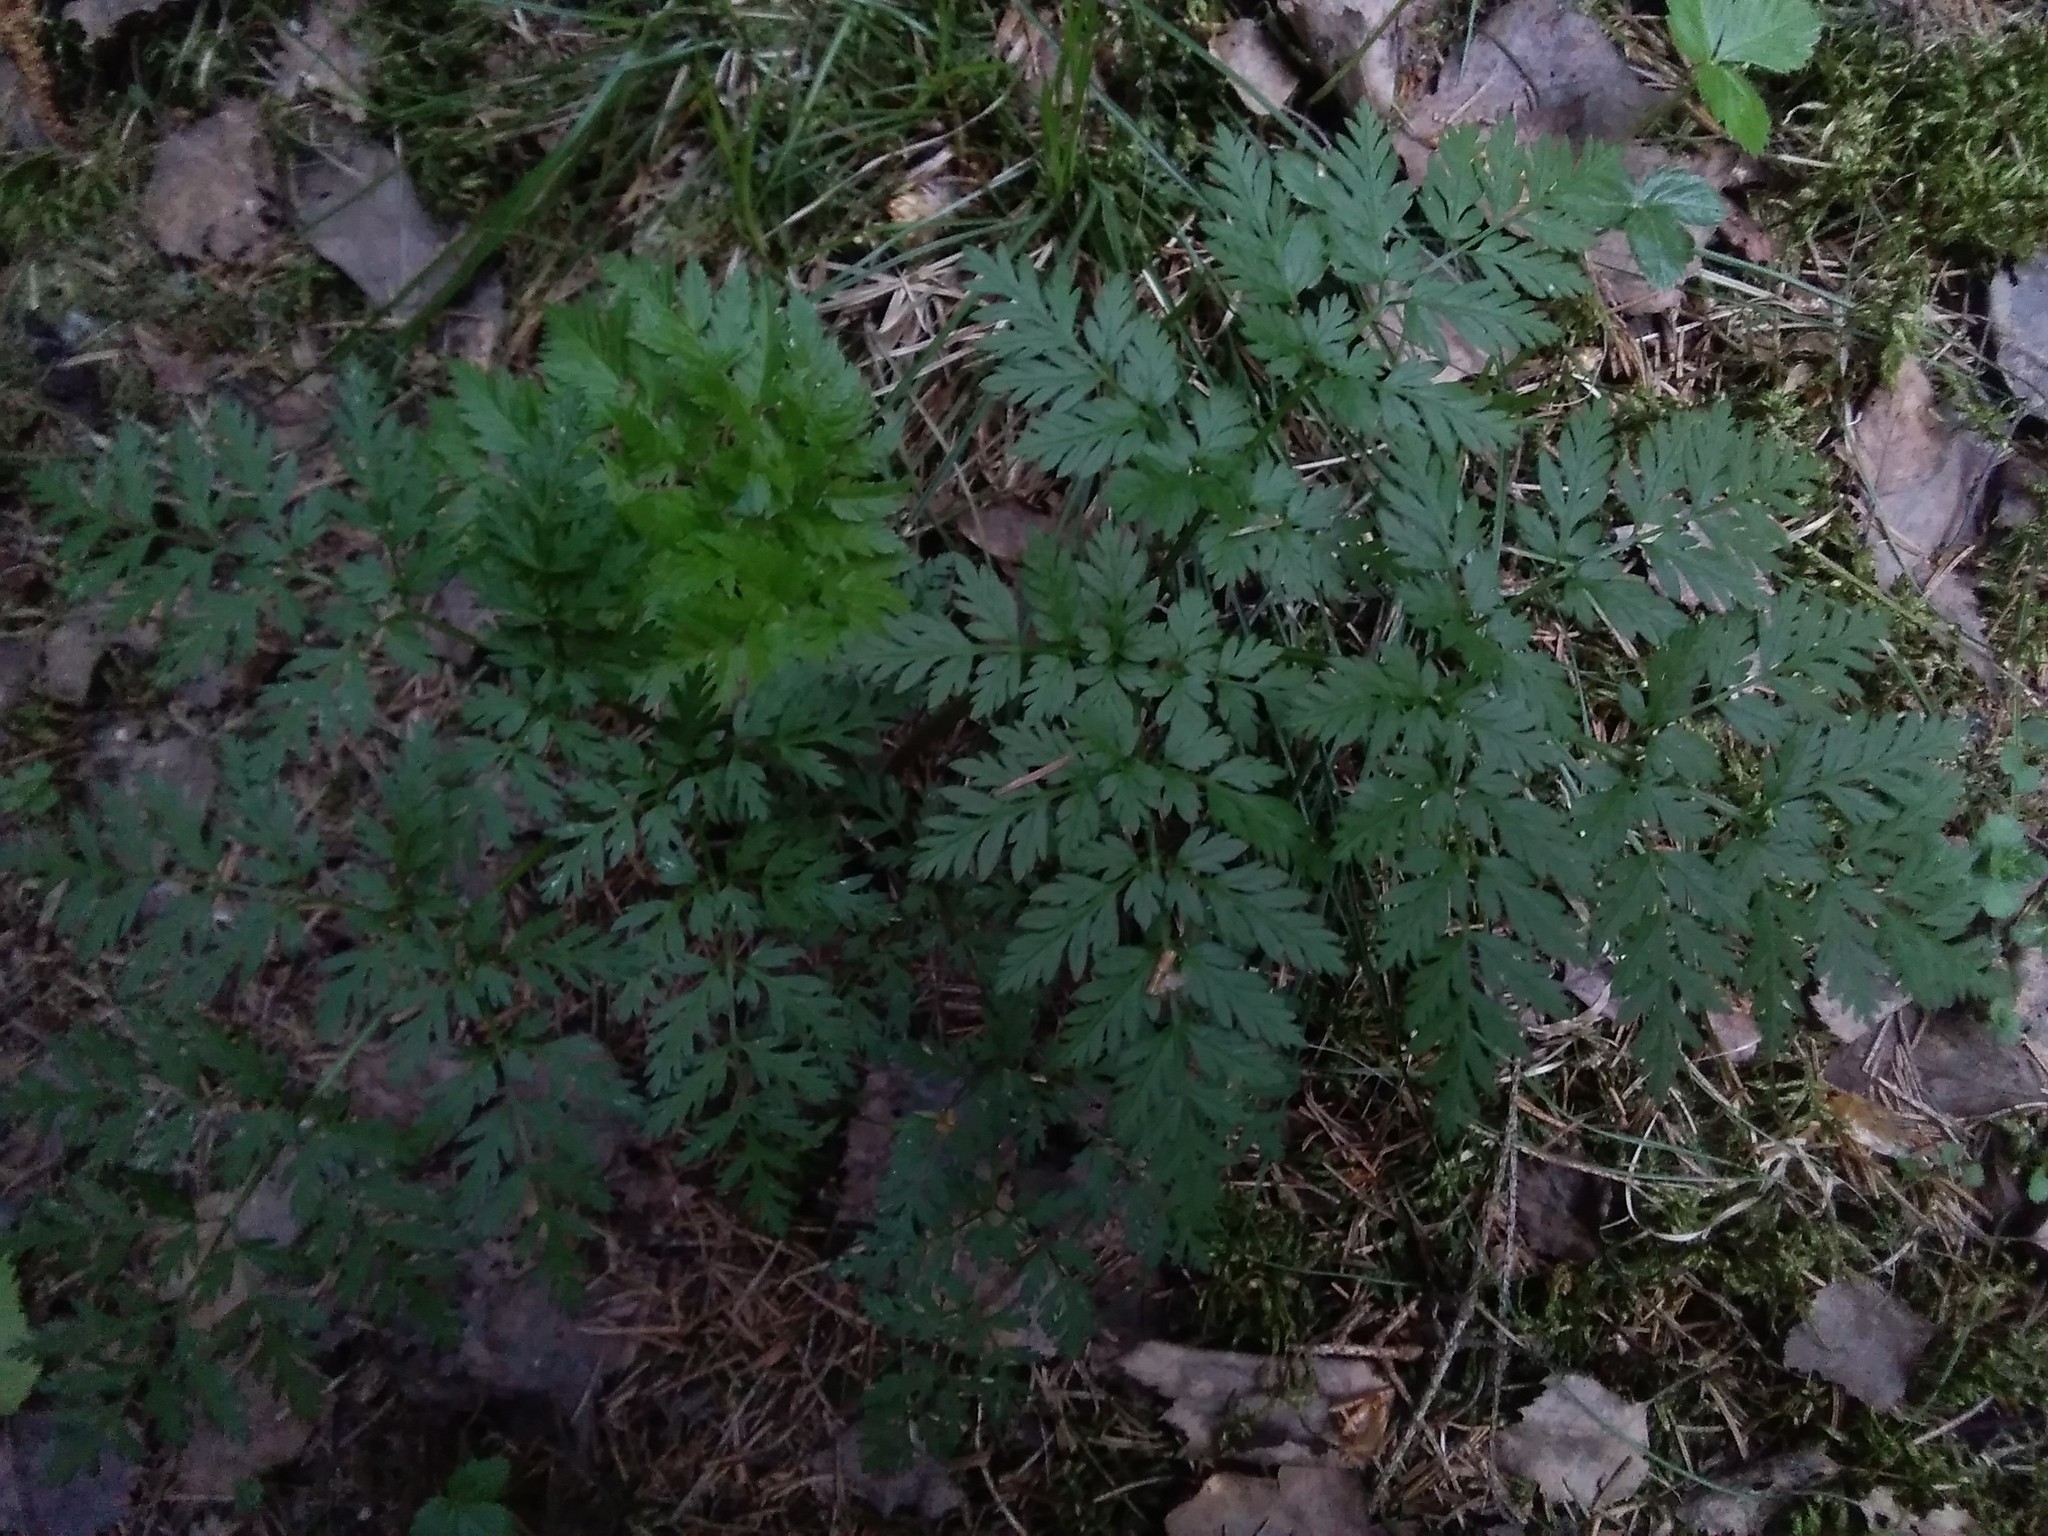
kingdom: Plantae
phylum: Tracheophyta
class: Magnoliopsida
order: Apiales
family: Apiaceae
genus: Anthriscus
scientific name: Anthriscus sylvestris
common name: Cow parsley
